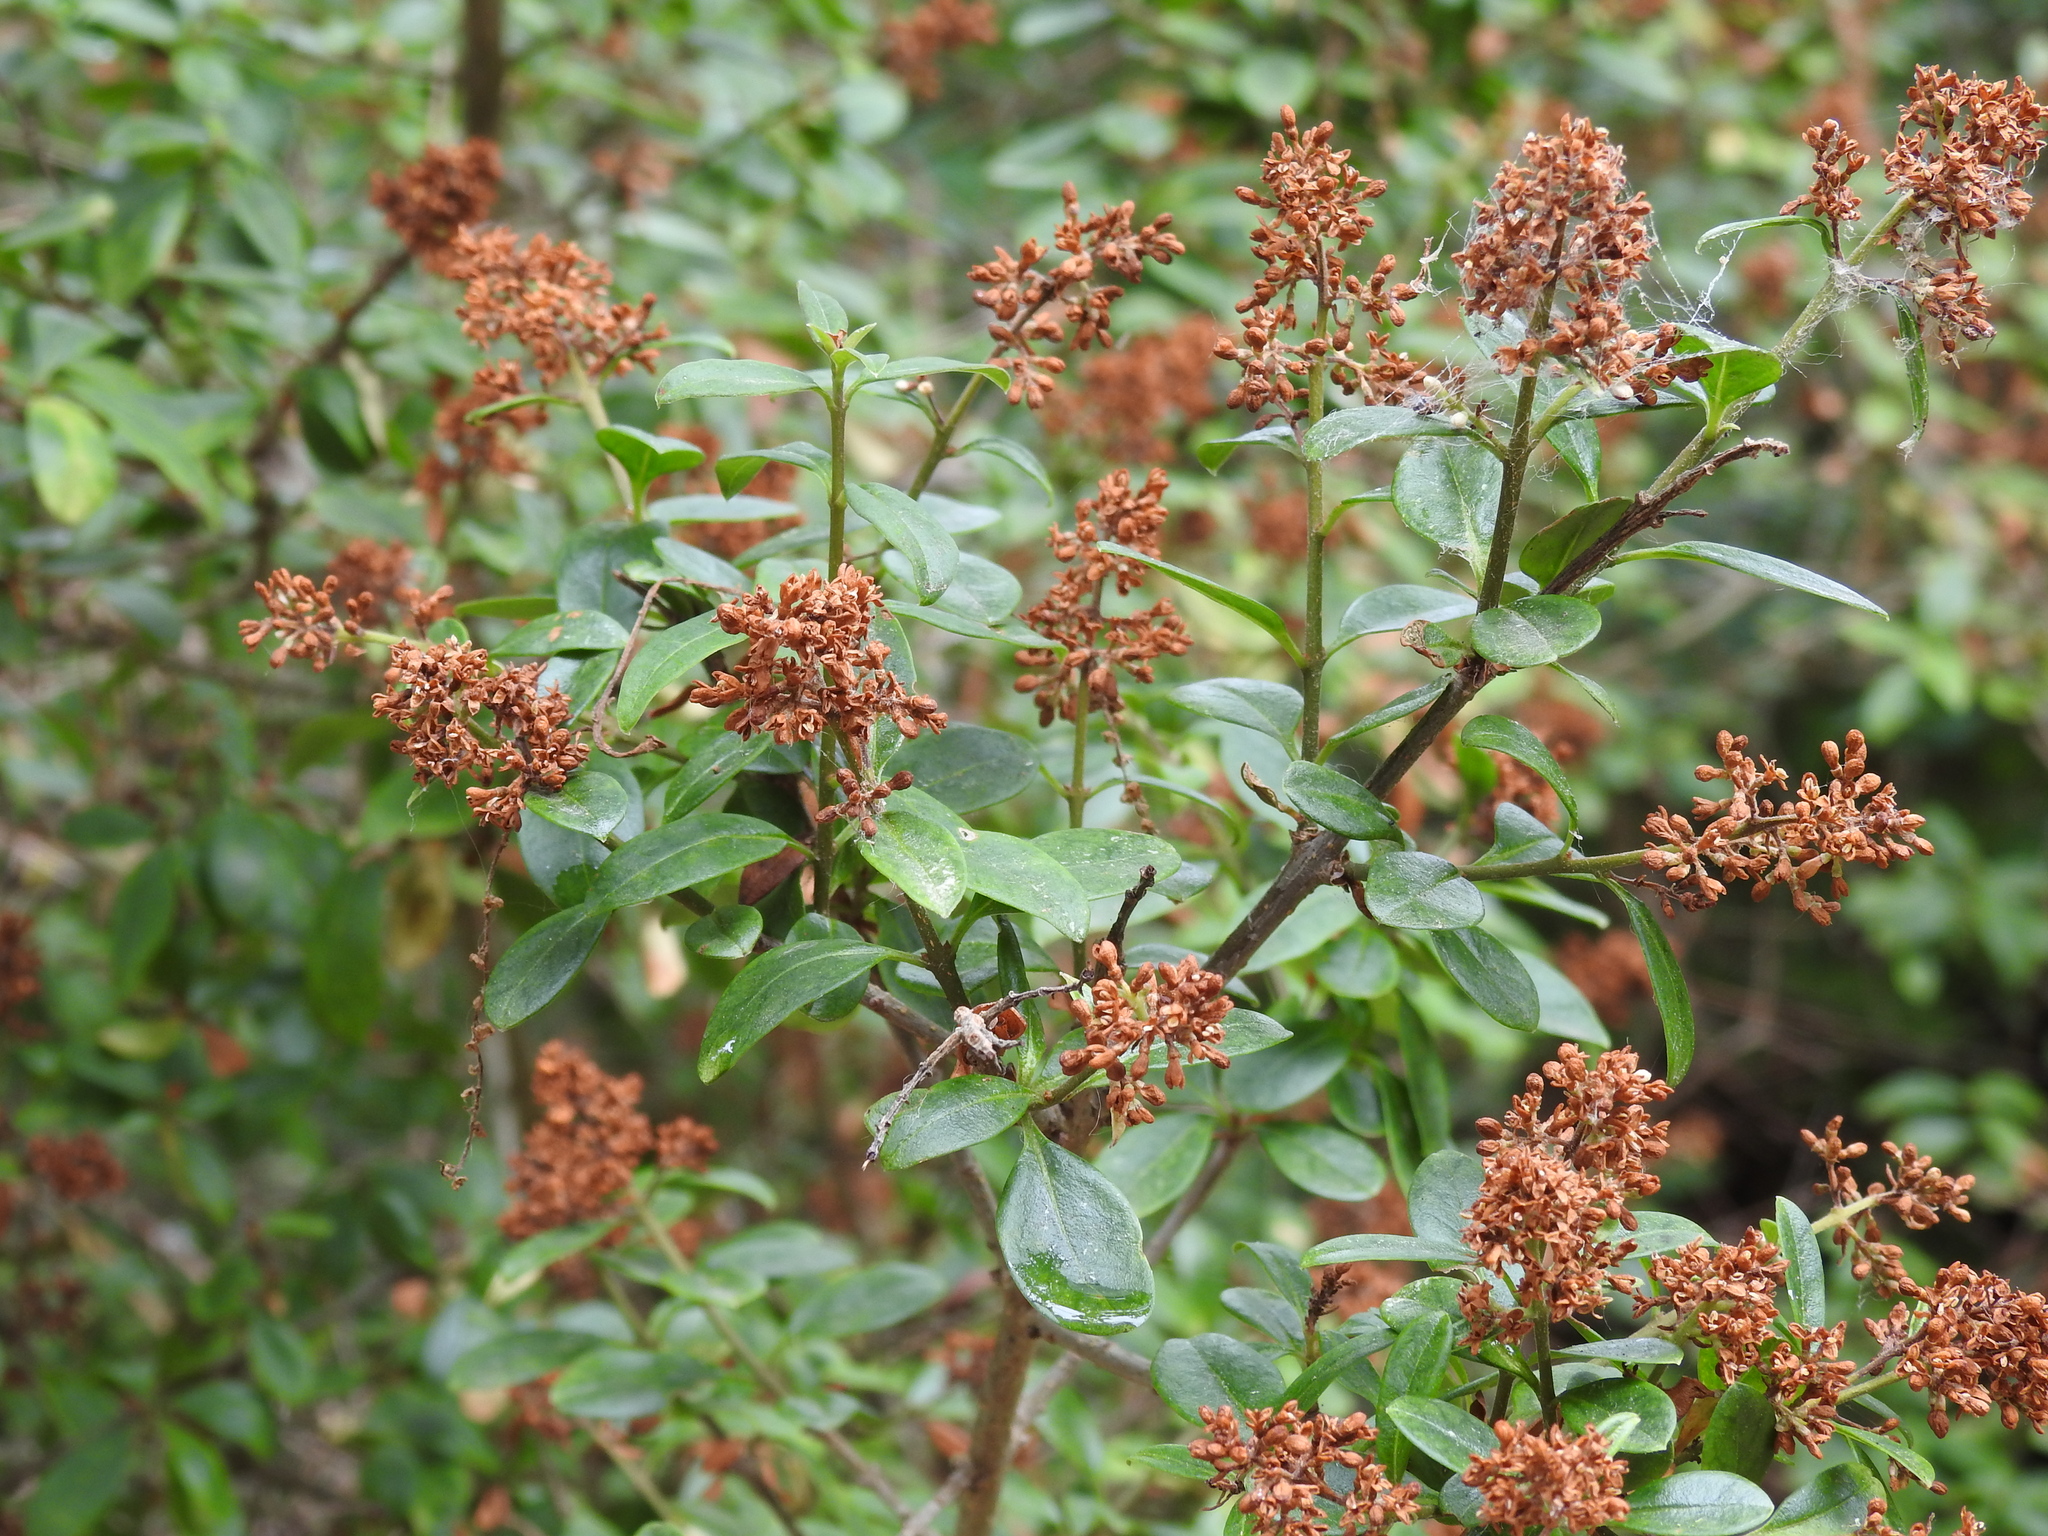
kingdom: Plantae
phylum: Tracheophyta
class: Magnoliopsida
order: Lamiales
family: Oleaceae
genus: Ligustrum
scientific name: Ligustrum vulgare
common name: Wild privet
